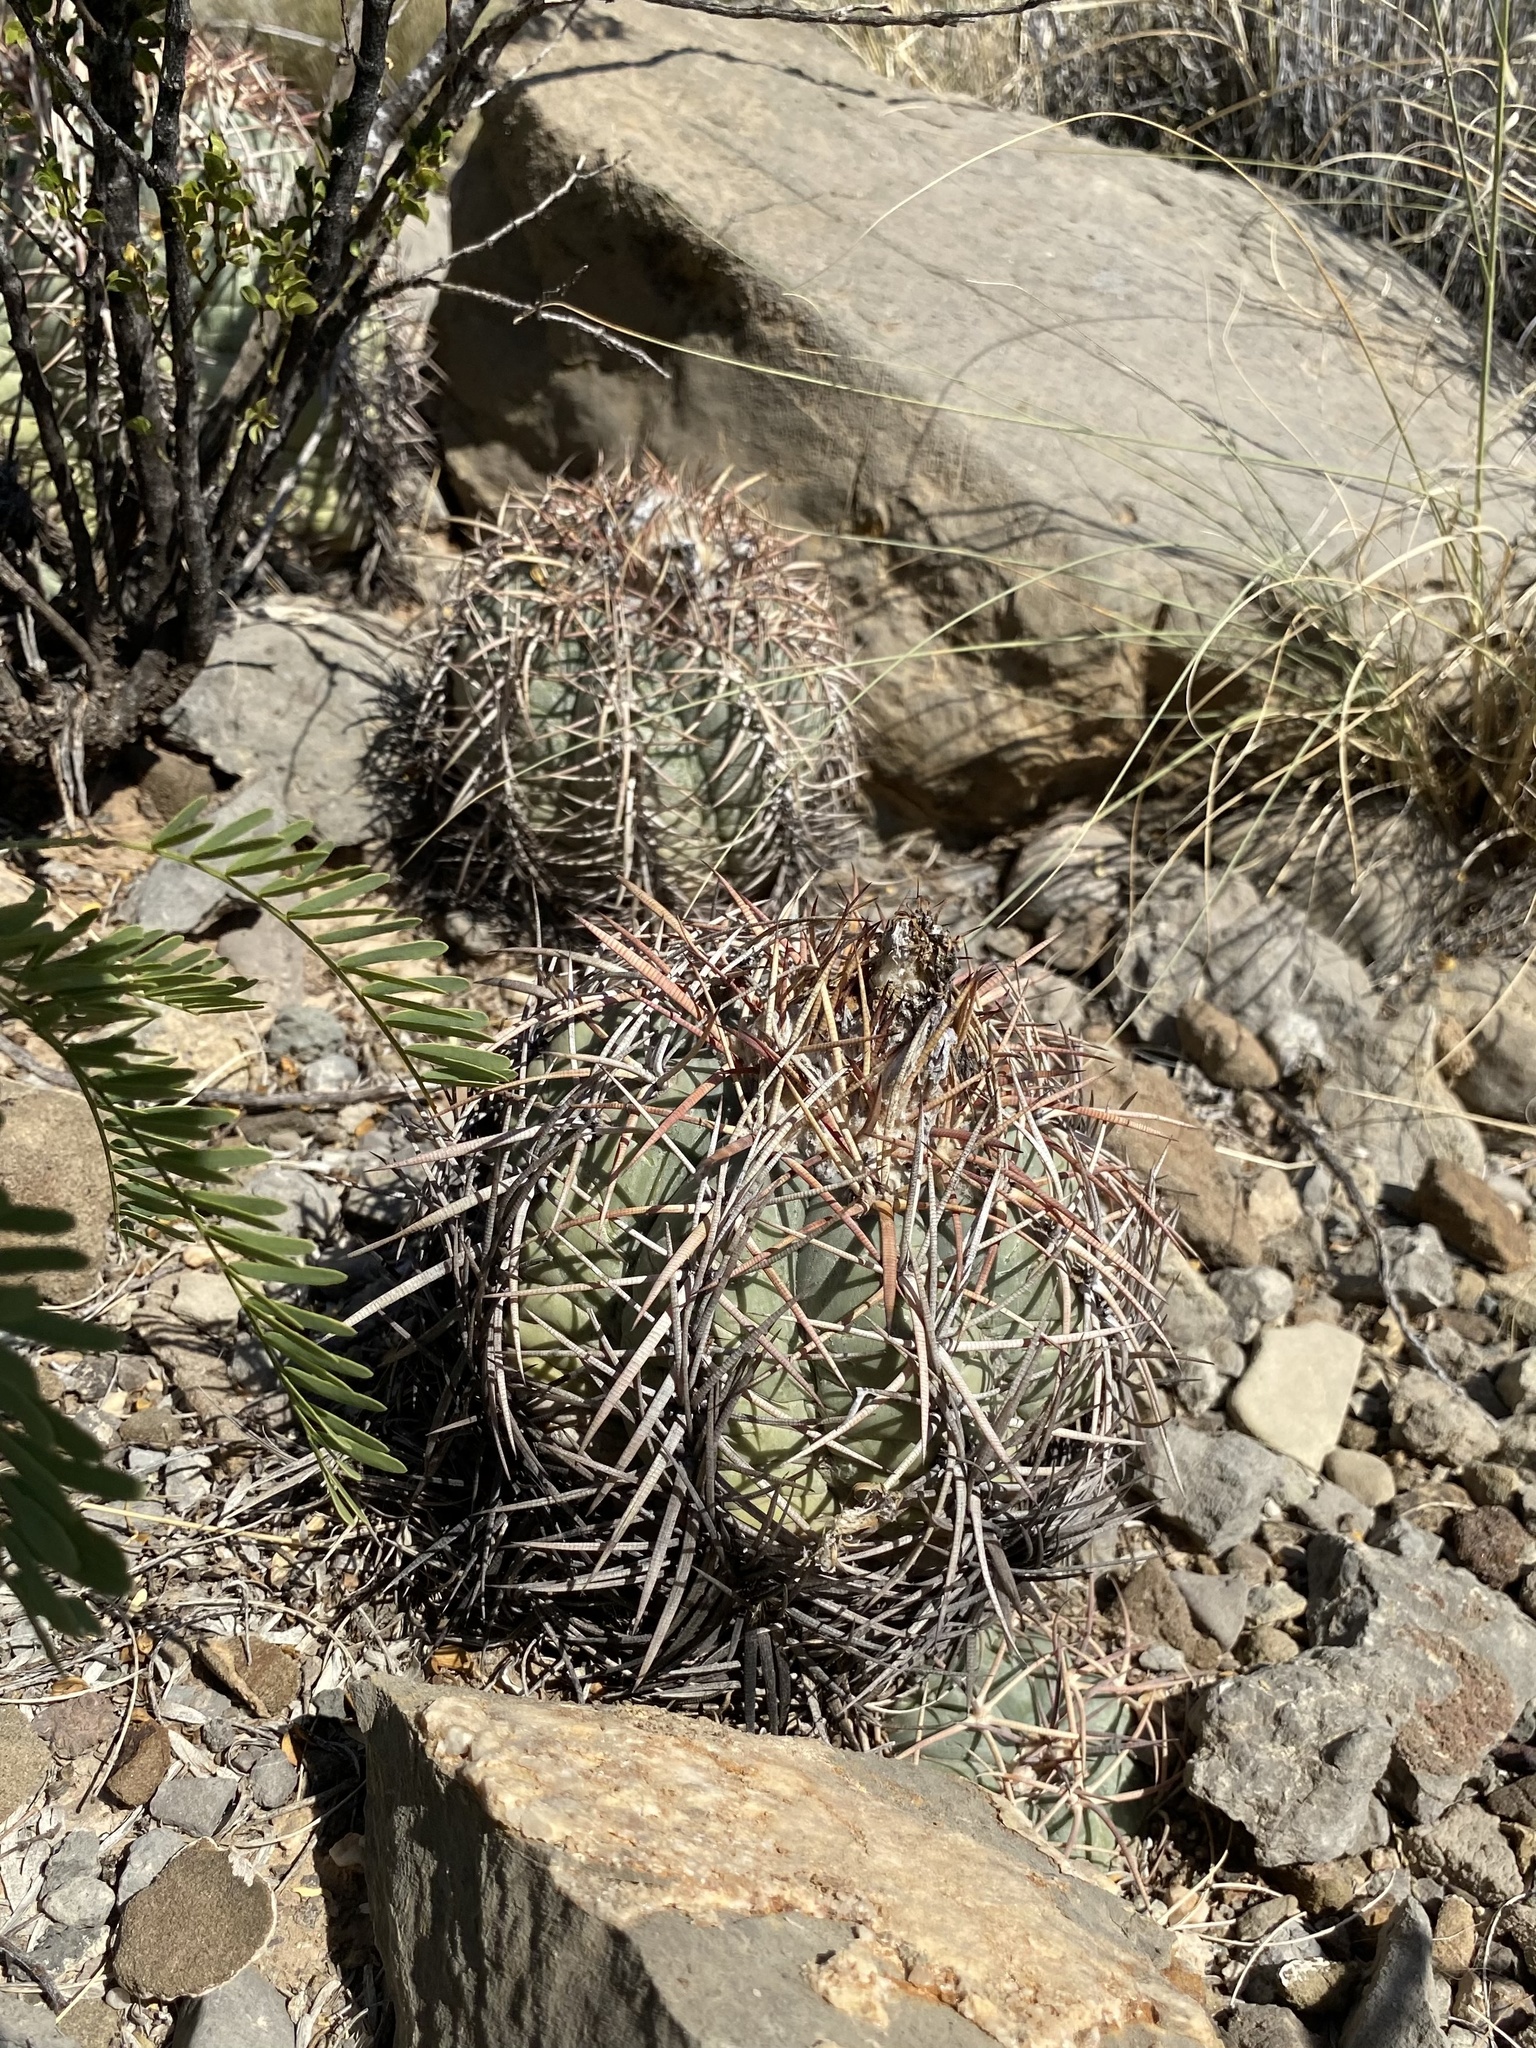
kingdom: Plantae
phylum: Tracheophyta
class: Magnoliopsida
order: Caryophyllales
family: Cactaceae
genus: Echinocactus
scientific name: Echinocactus horizonthalonius
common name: Devilshead
